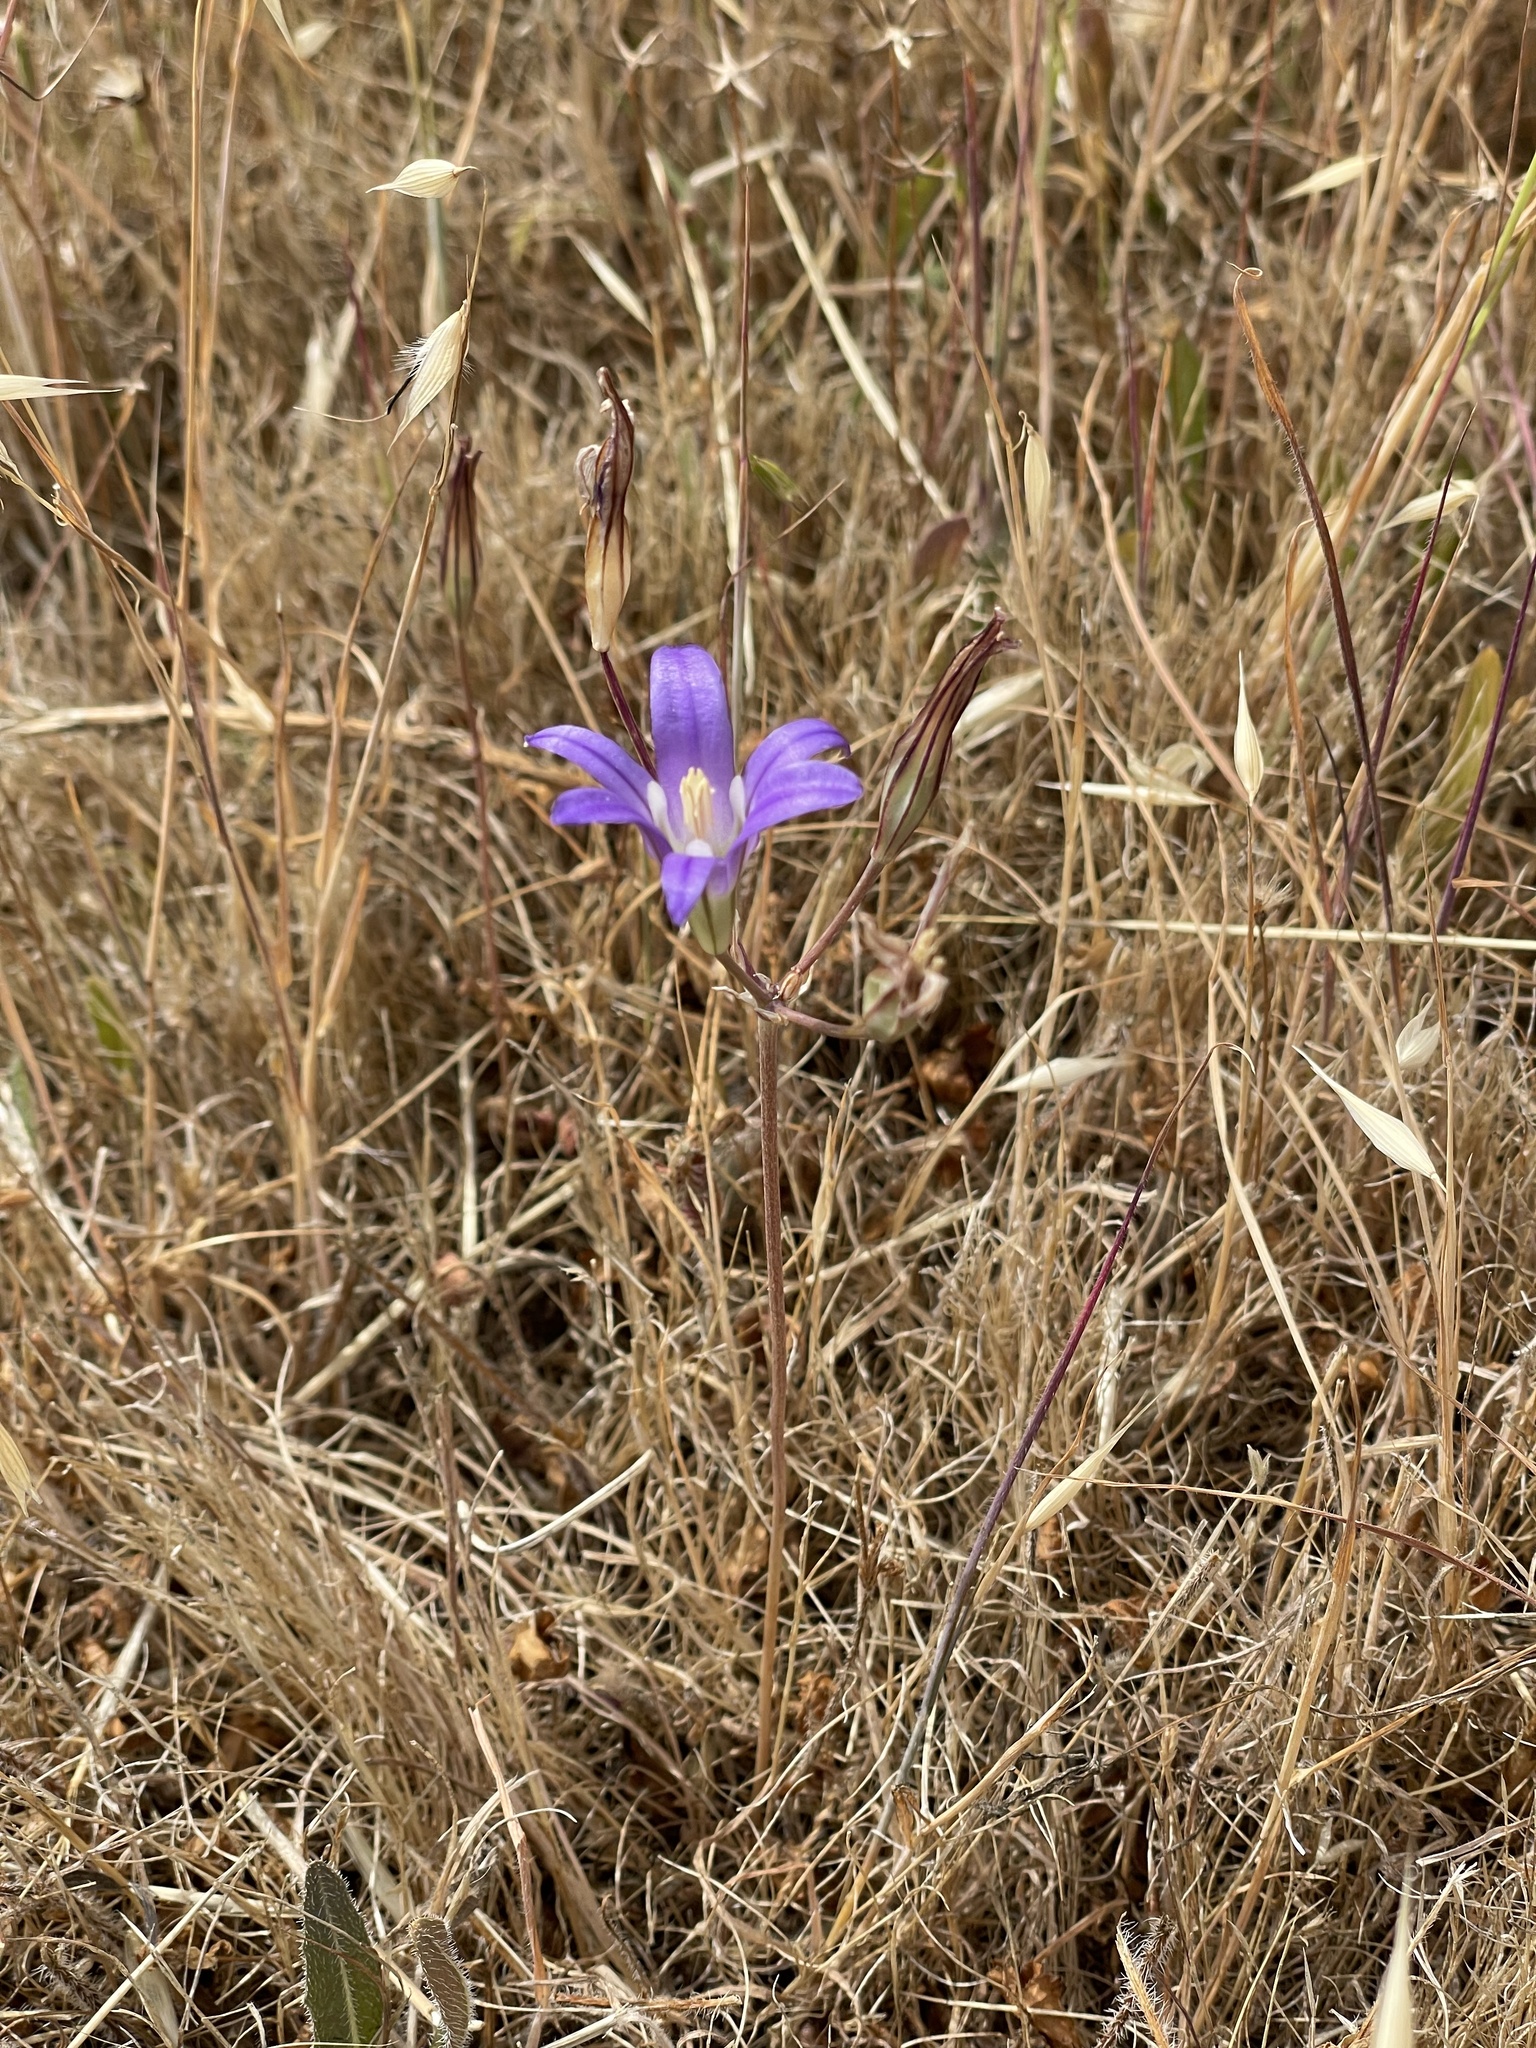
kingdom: Plantae
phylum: Tracheophyta
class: Liliopsida
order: Asparagales
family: Asparagaceae
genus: Brodiaea
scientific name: Brodiaea elegans
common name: Elegant cluster-lily
